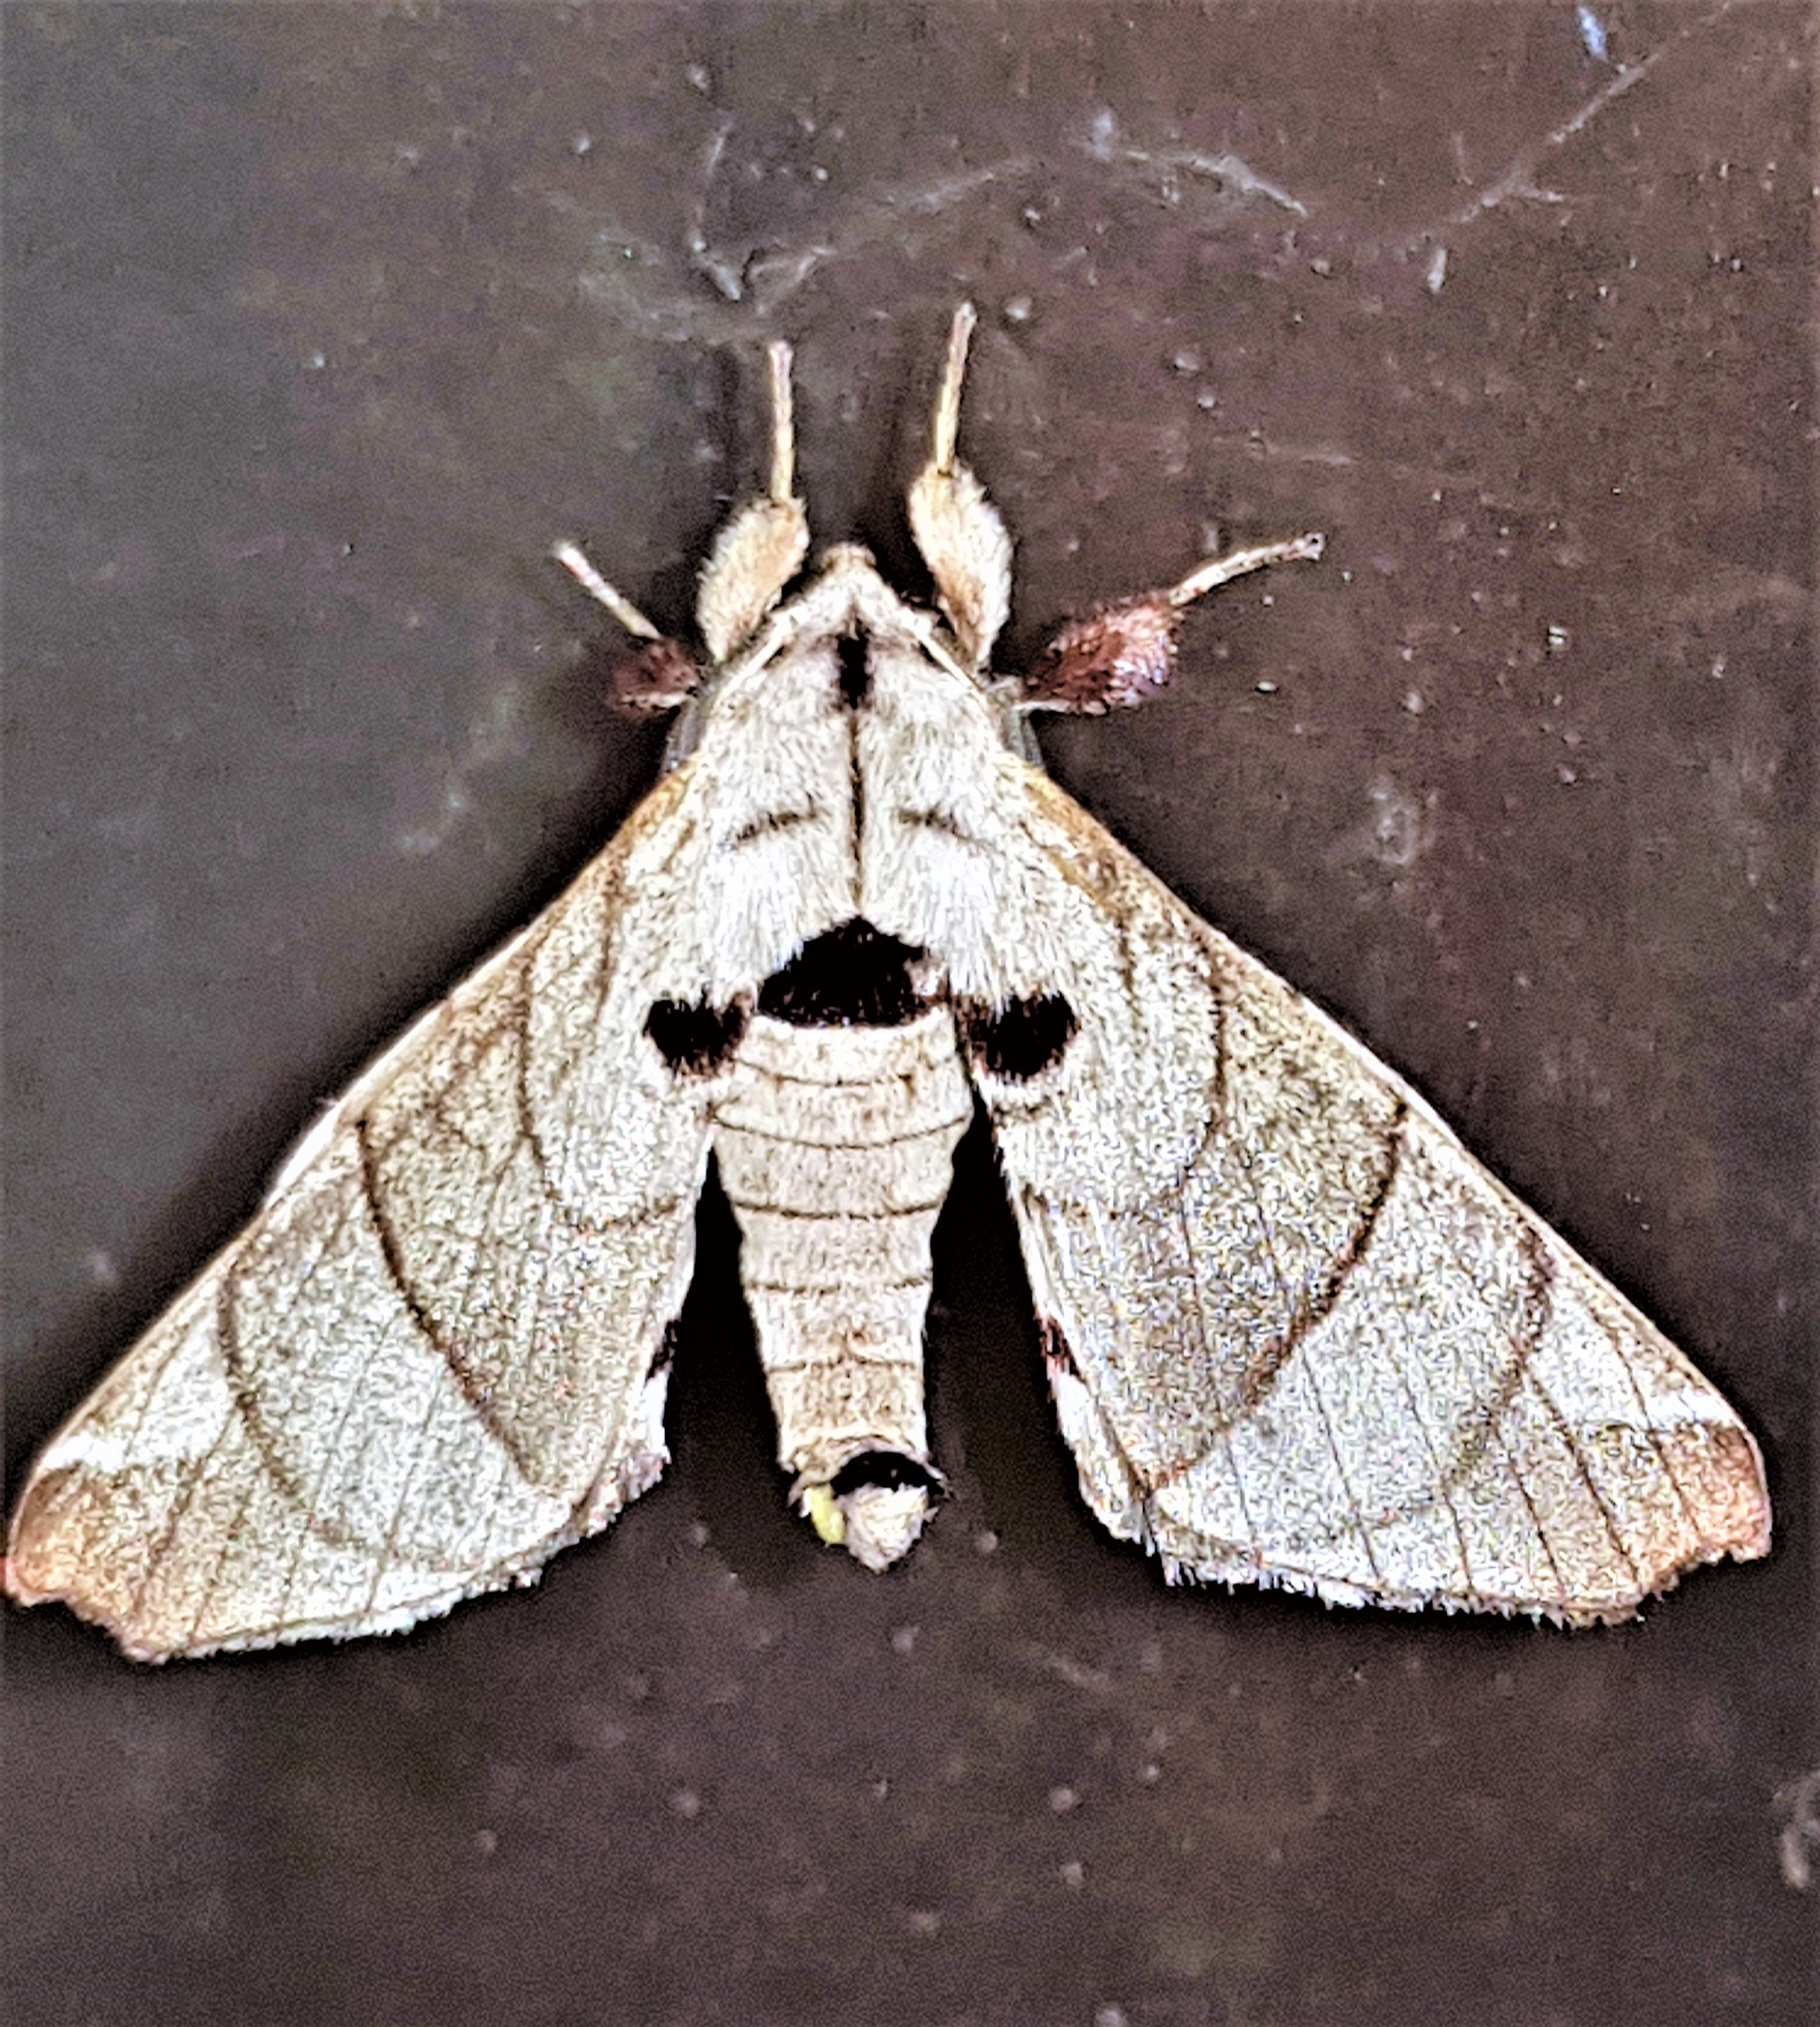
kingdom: Animalia
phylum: Arthropoda
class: Insecta
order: Lepidoptera
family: Apatelodidae
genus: Hygrochroa
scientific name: Hygrochroa firmiana
